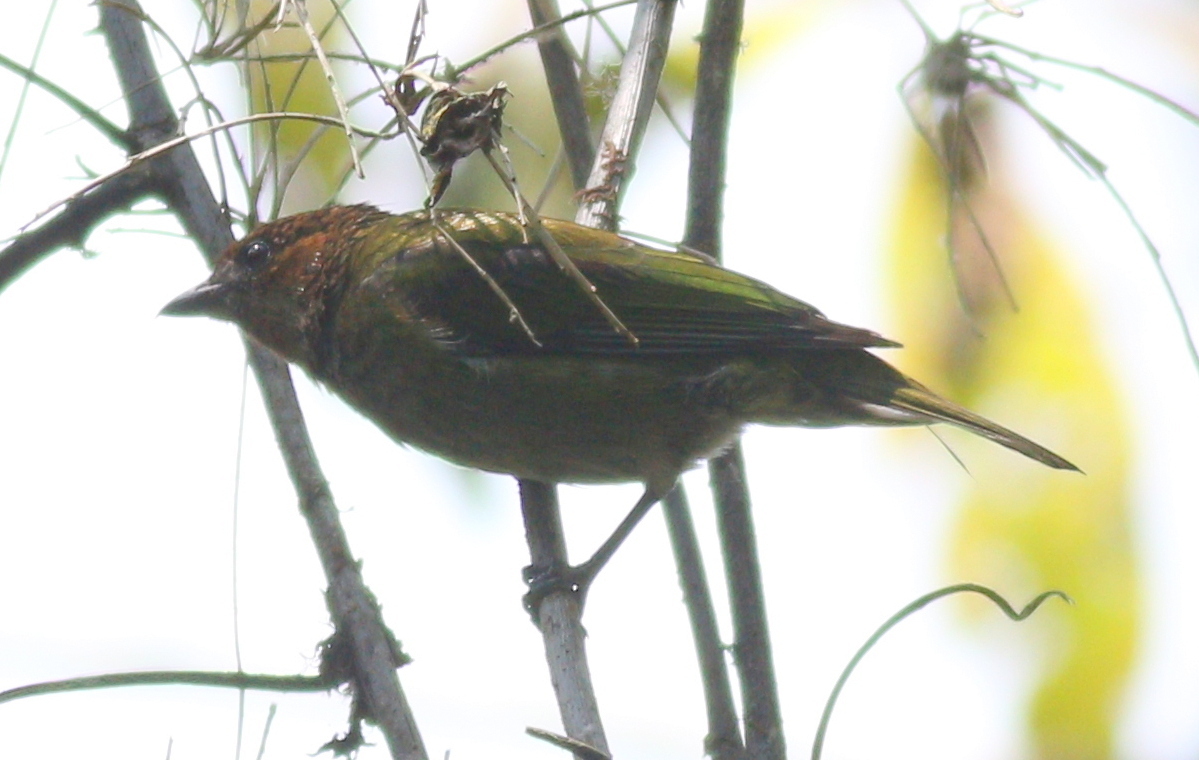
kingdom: Animalia
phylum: Chordata
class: Aves
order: Passeriformes
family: Thraupidae
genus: Stilpnia
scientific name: Stilpnia viridicollis
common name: Silver-backed tanager
